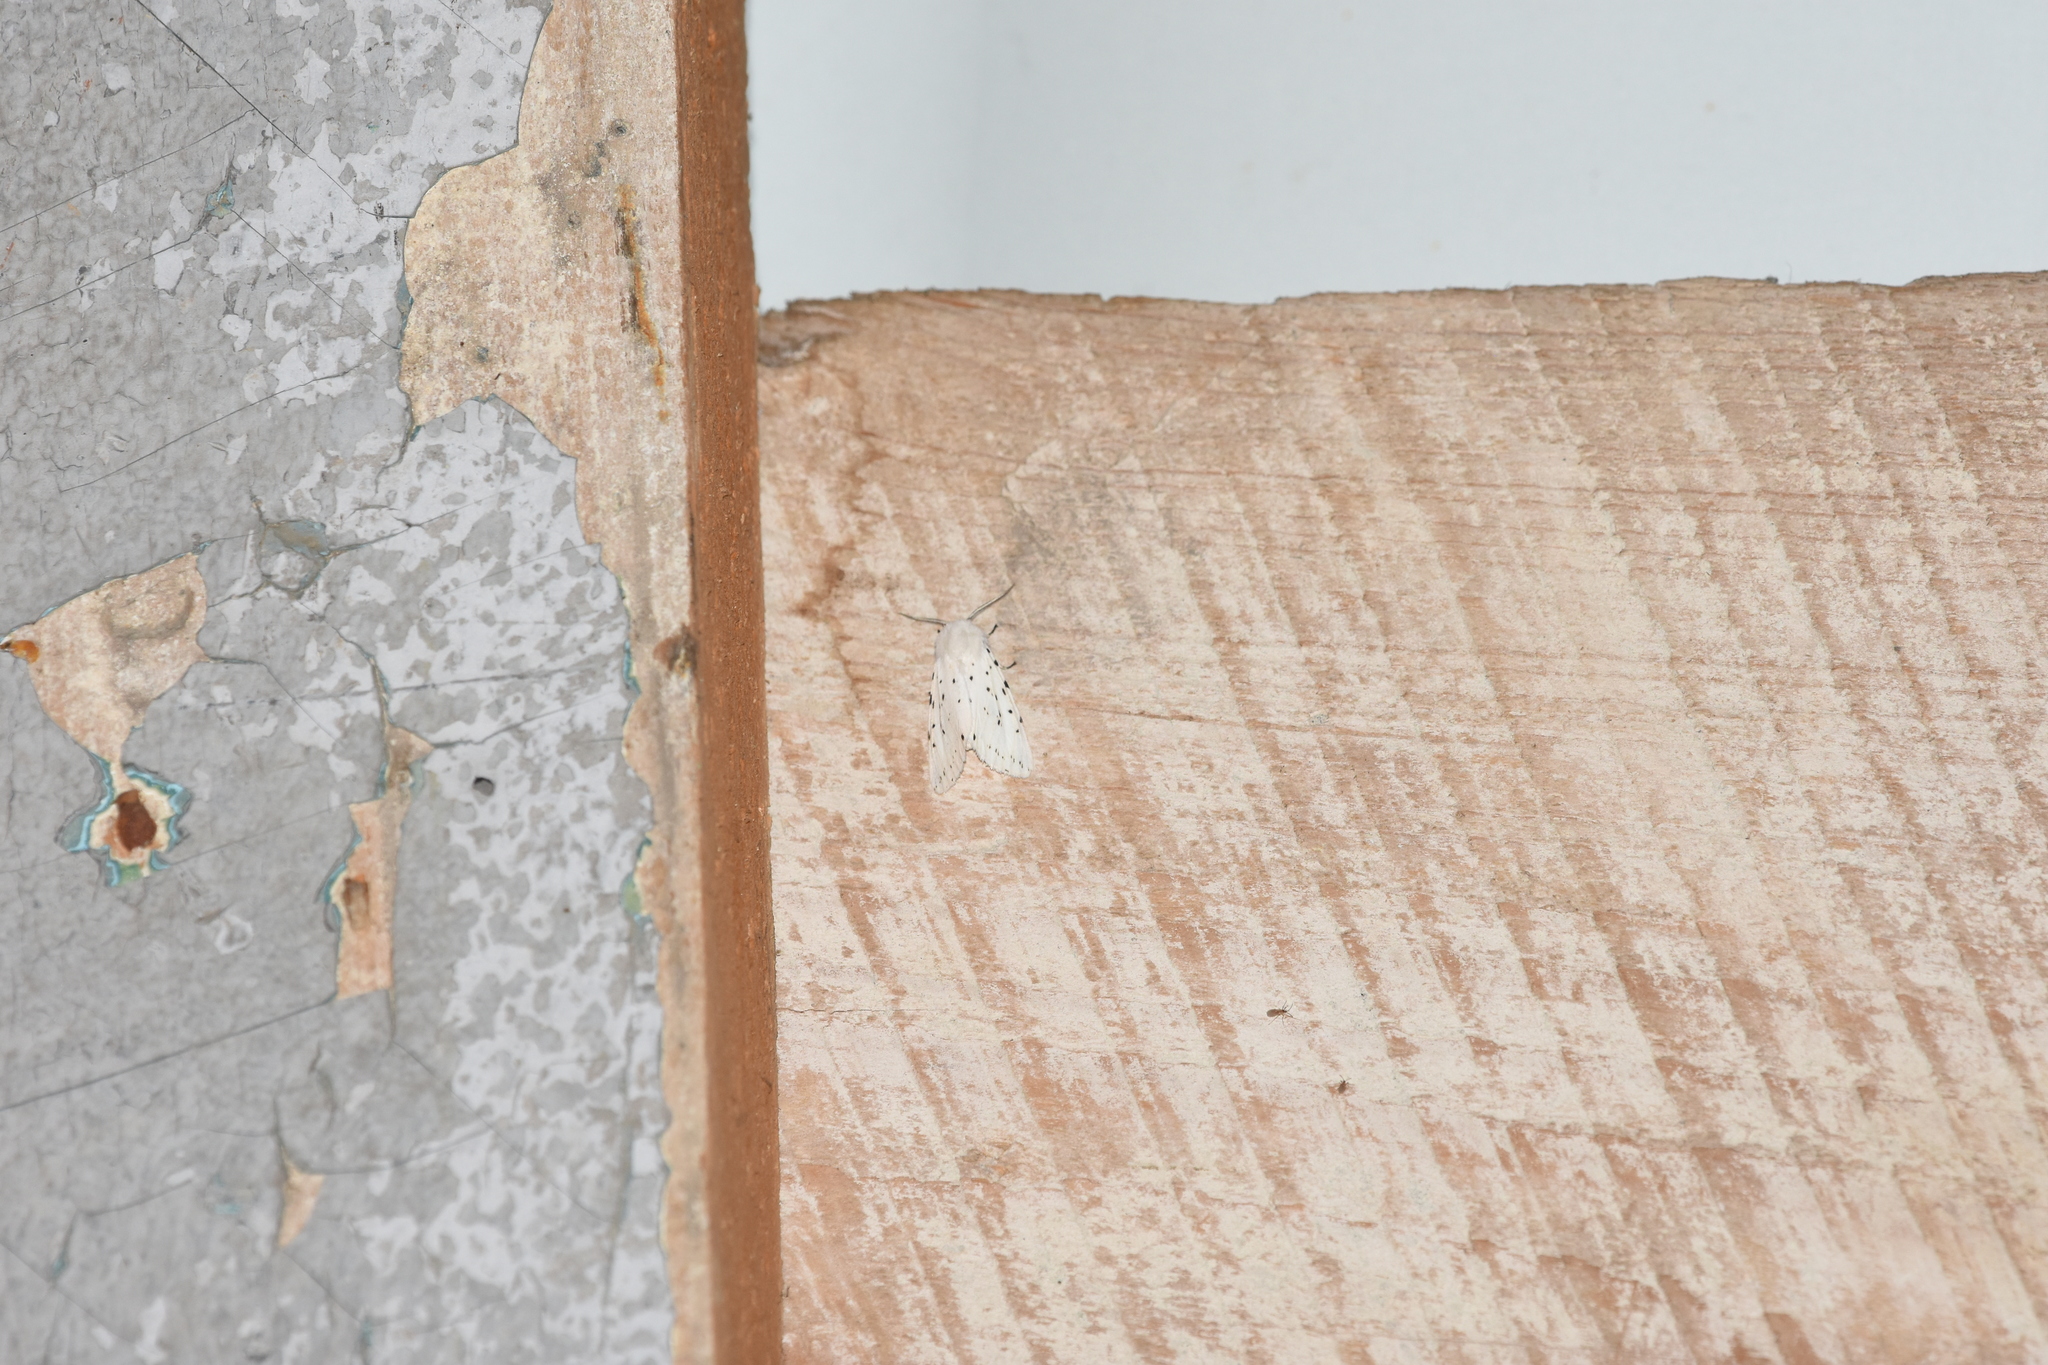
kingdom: Animalia
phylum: Arthropoda
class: Insecta
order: Lepidoptera
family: Erebidae
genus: Spilosoma
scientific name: Spilosoma lubricipeda
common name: White ermine
